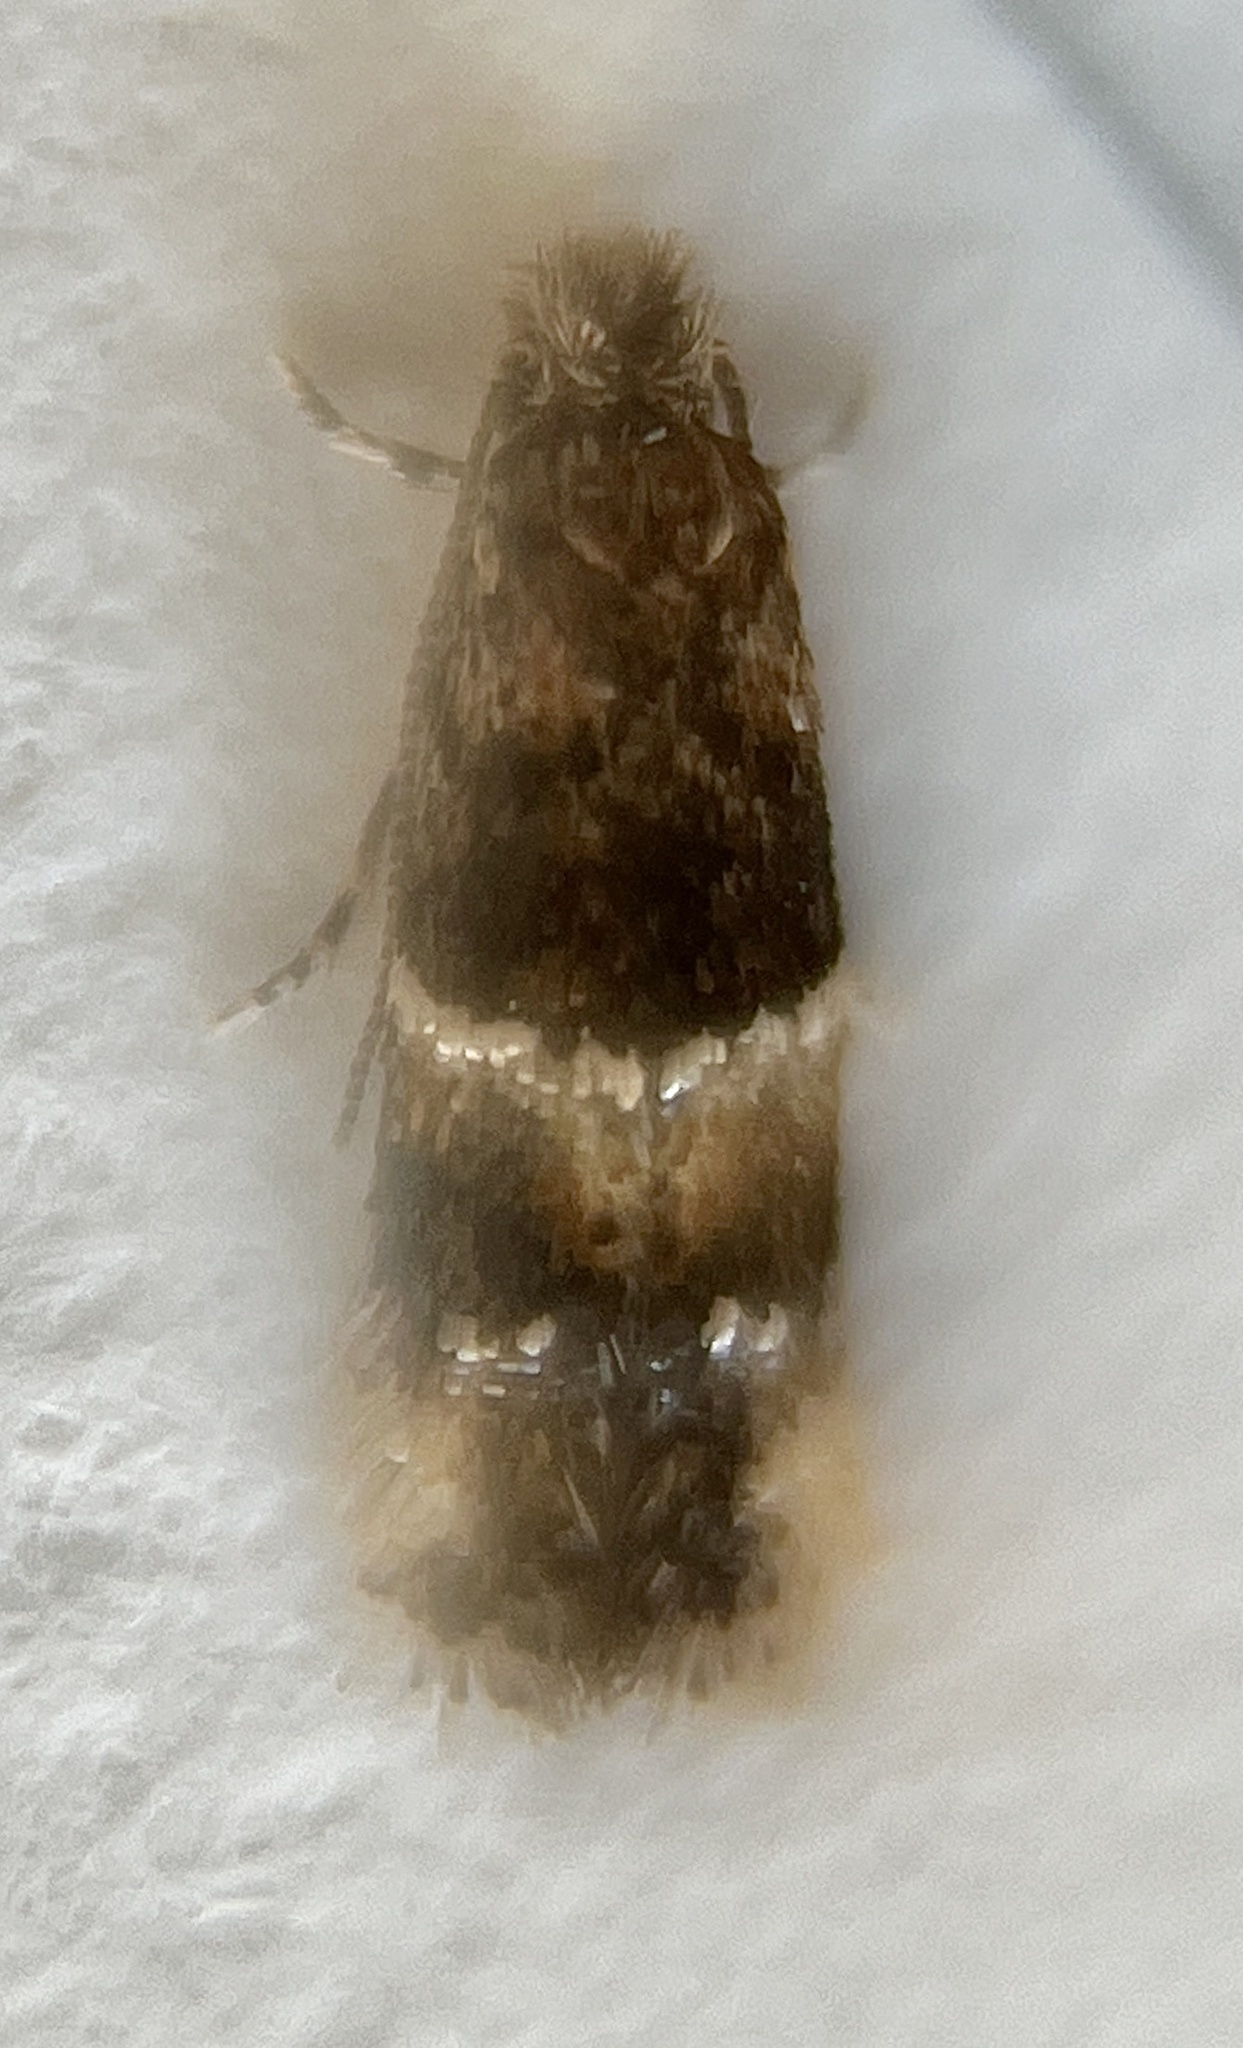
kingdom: Animalia
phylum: Arthropoda
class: Insecta
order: Lepidoptera
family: Meessiidae
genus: Oenoe
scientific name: Oenoe euphrantis
